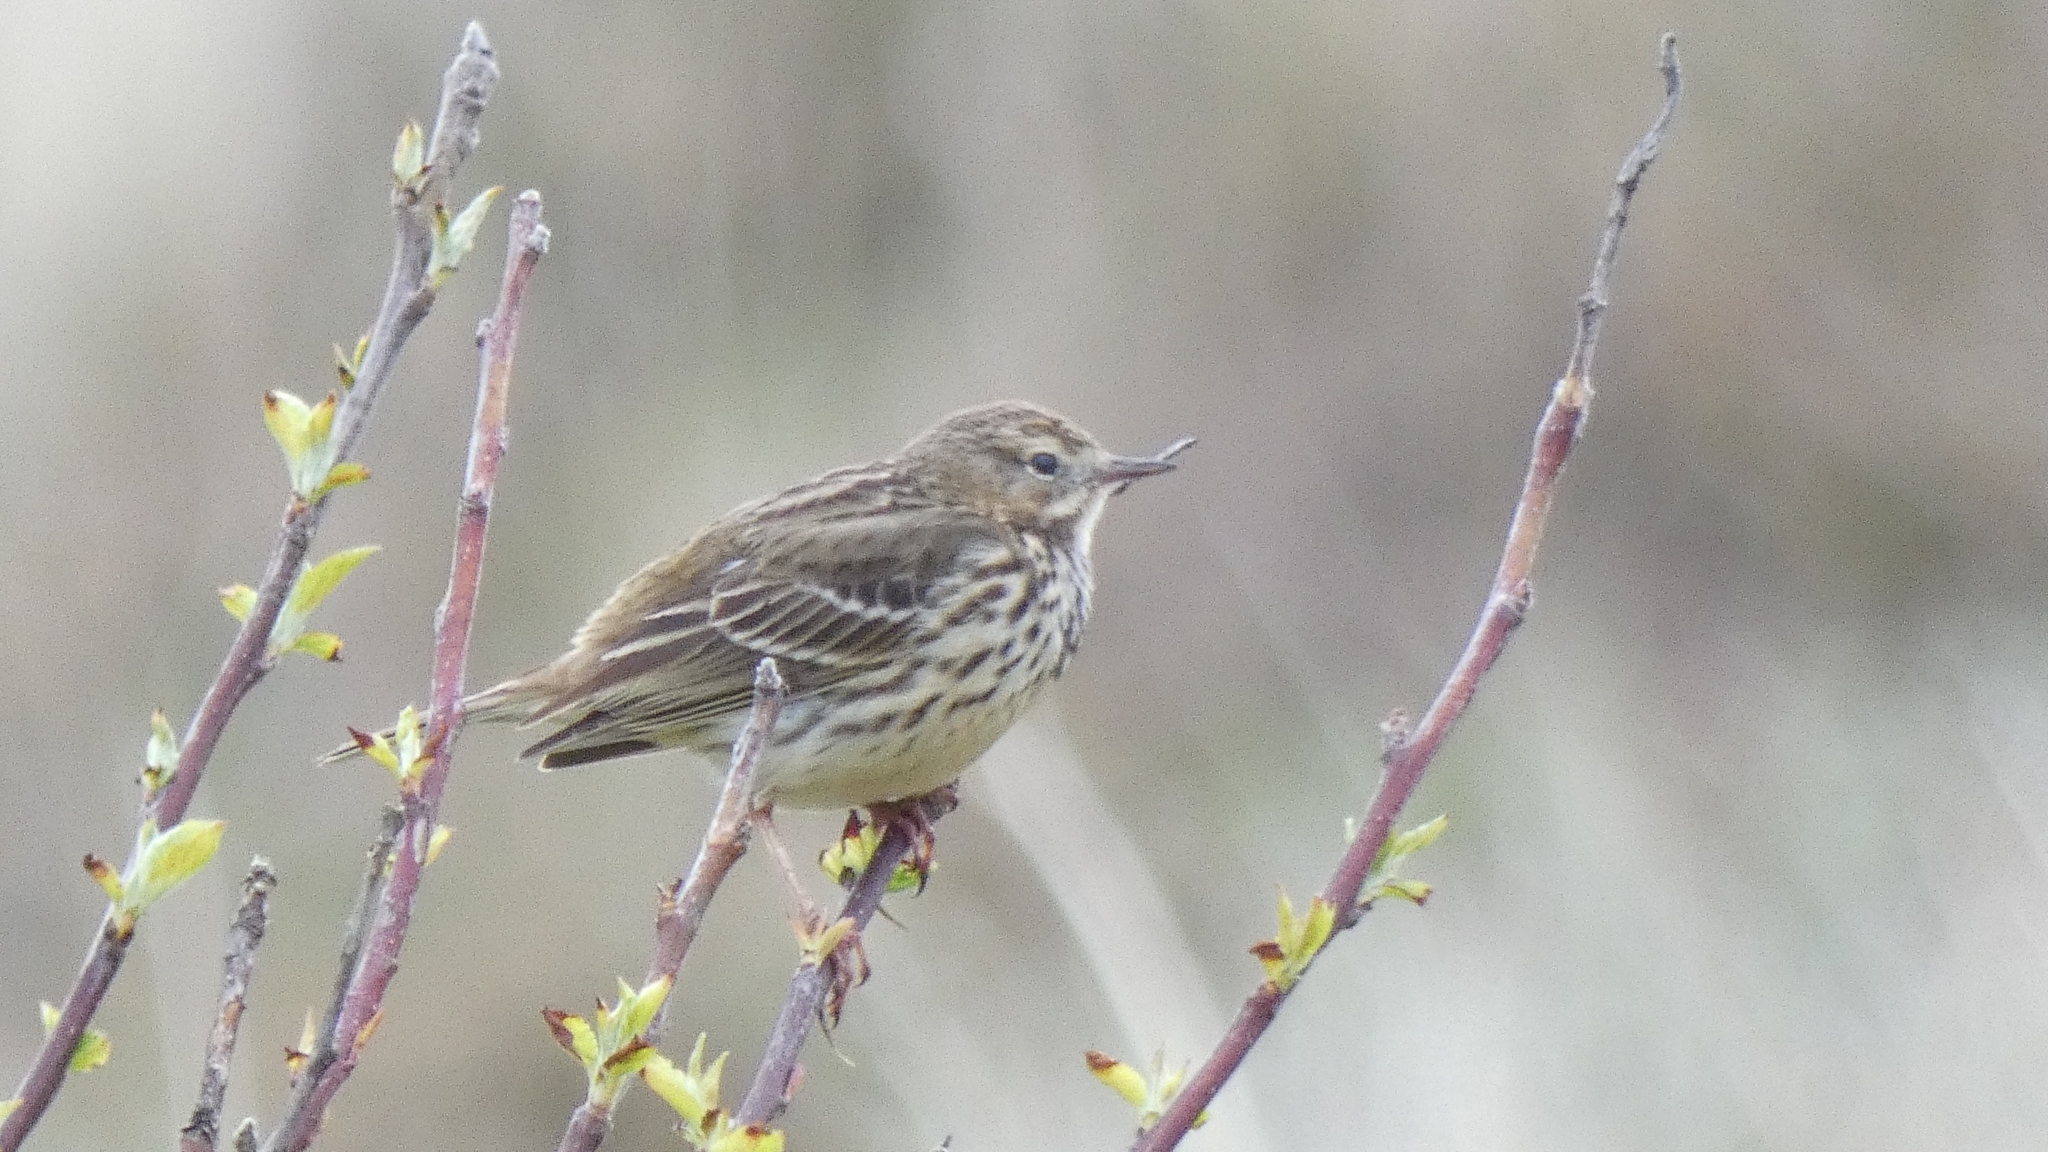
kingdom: Animalia
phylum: Chordata
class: Aves
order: Passeriformes
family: Motacillidae
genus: Anthus
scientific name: Anthus pratensis
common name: Meadow pipit
